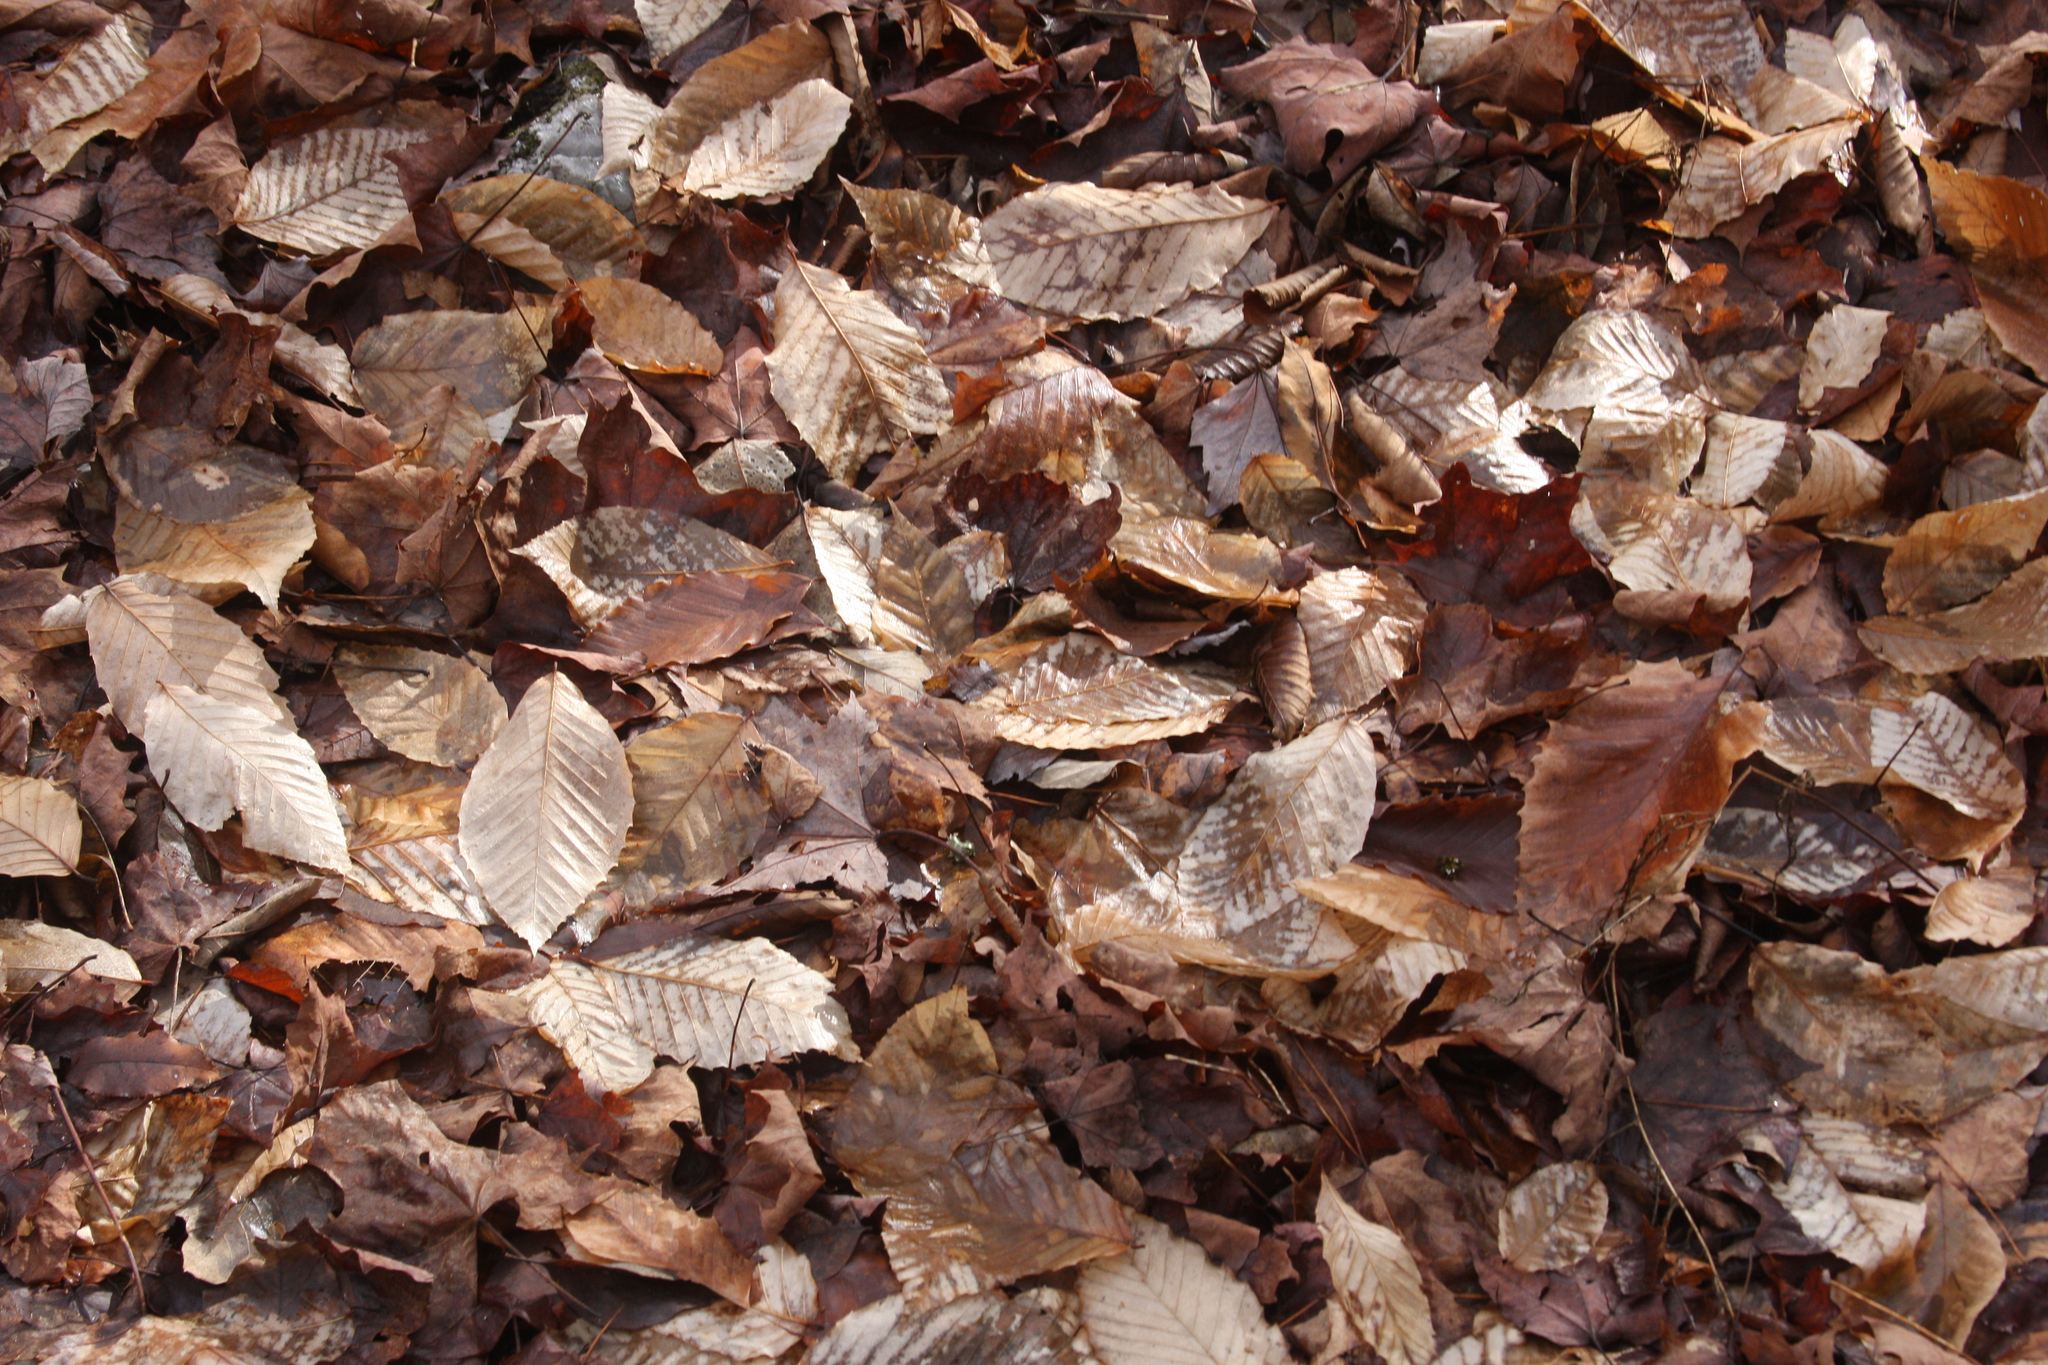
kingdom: Plantae
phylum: Tracheophyta
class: Magnoliopsida
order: Fagales
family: Fagaceae
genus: Fagus
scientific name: Fagus grandifolia
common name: American beech
